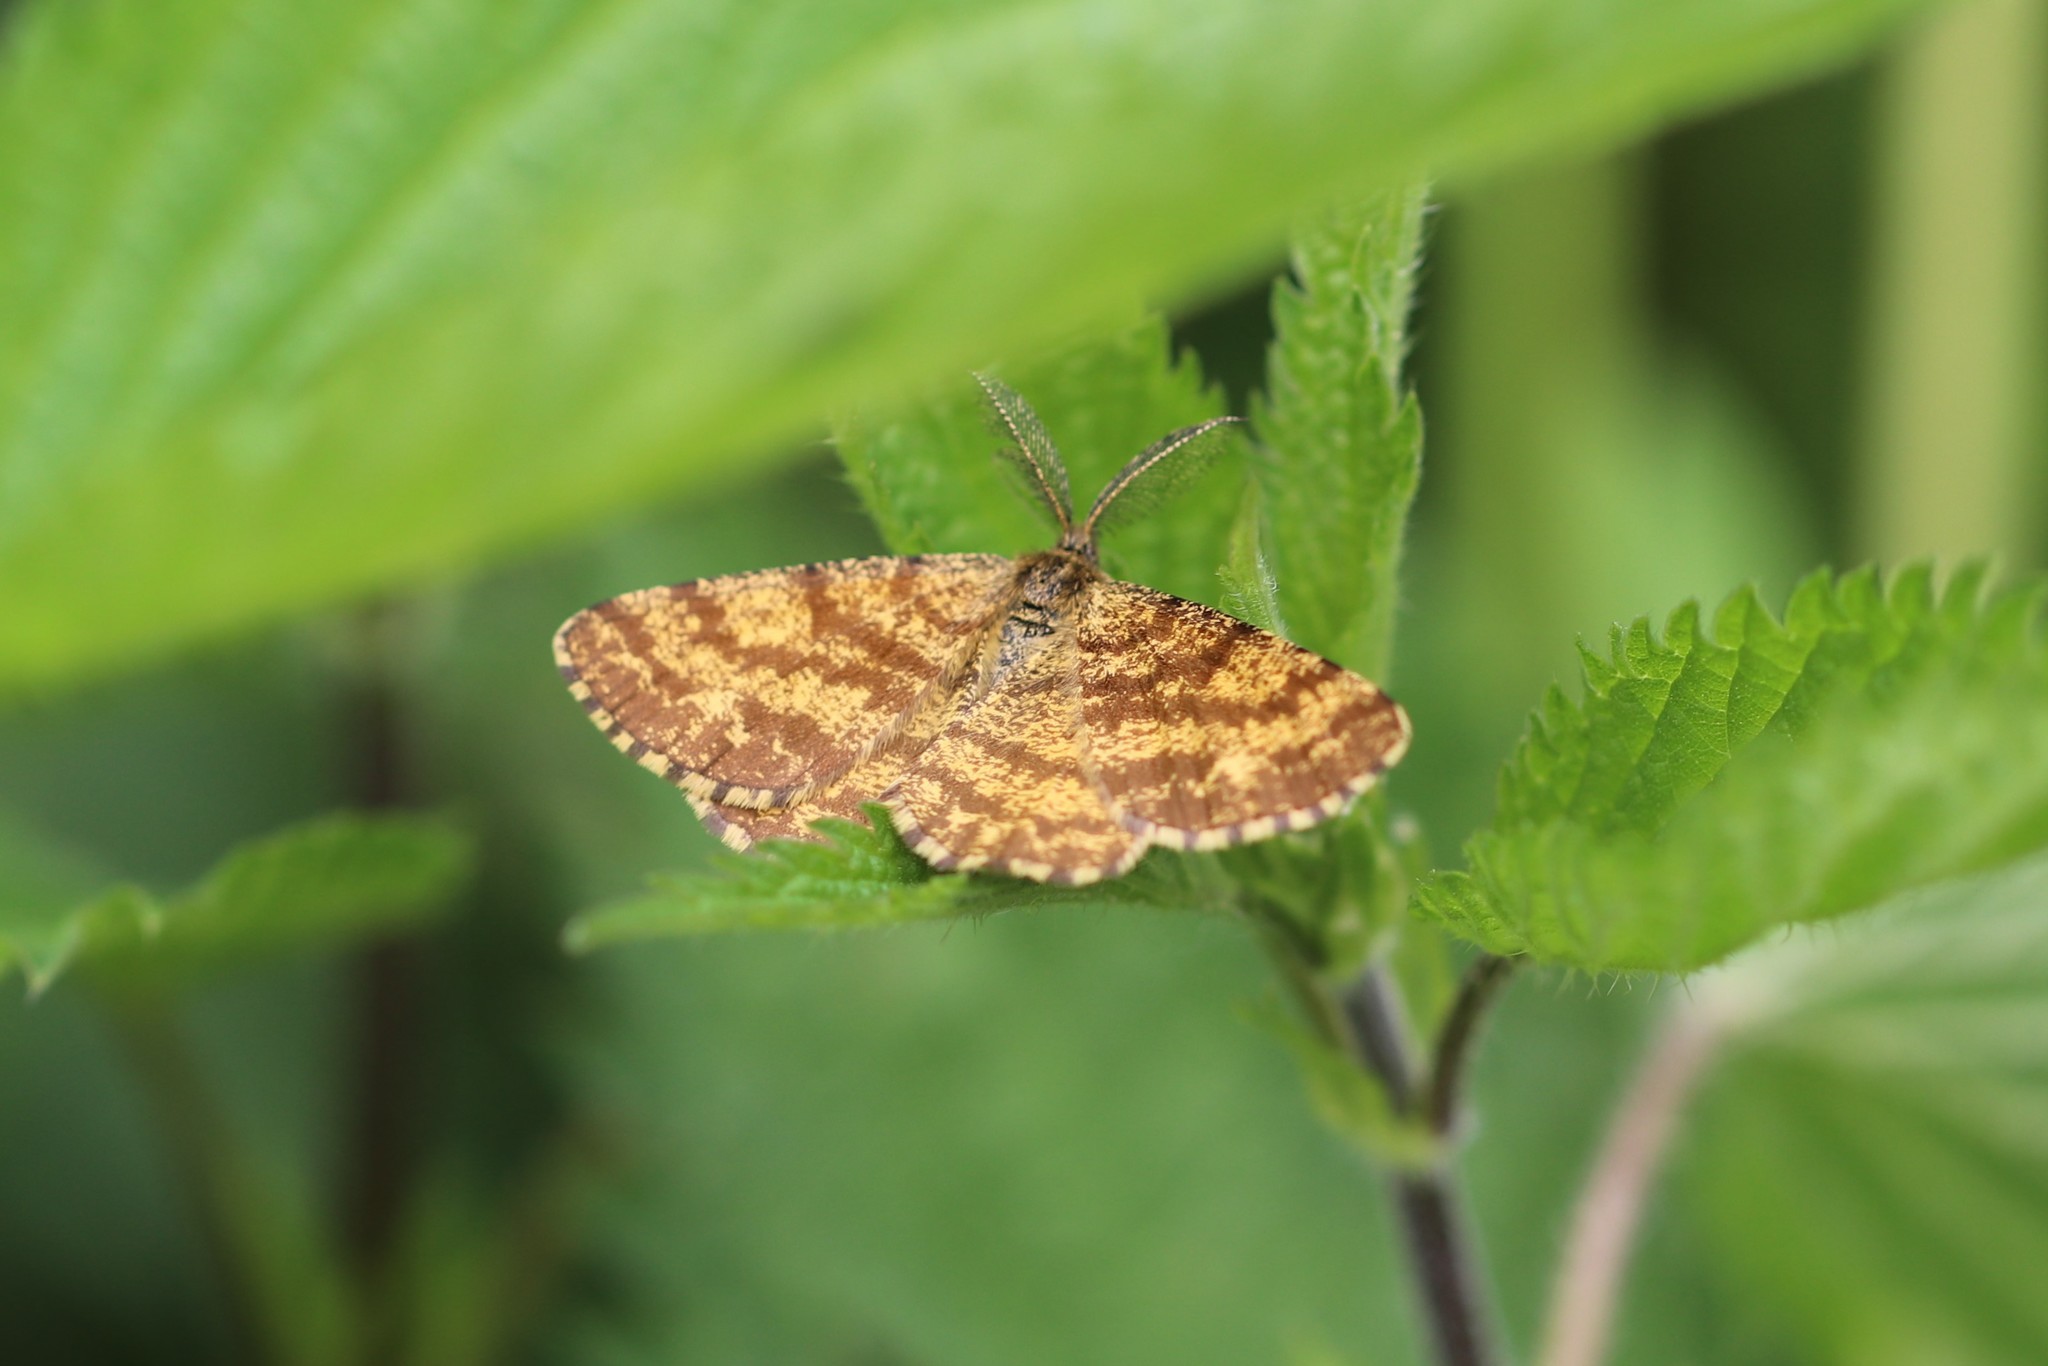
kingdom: Animalia
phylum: Arthropoda
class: Insecta
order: Lepidoptera
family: Geometridae
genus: Ematurga
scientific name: Ematurga atomaria
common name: Common heath
